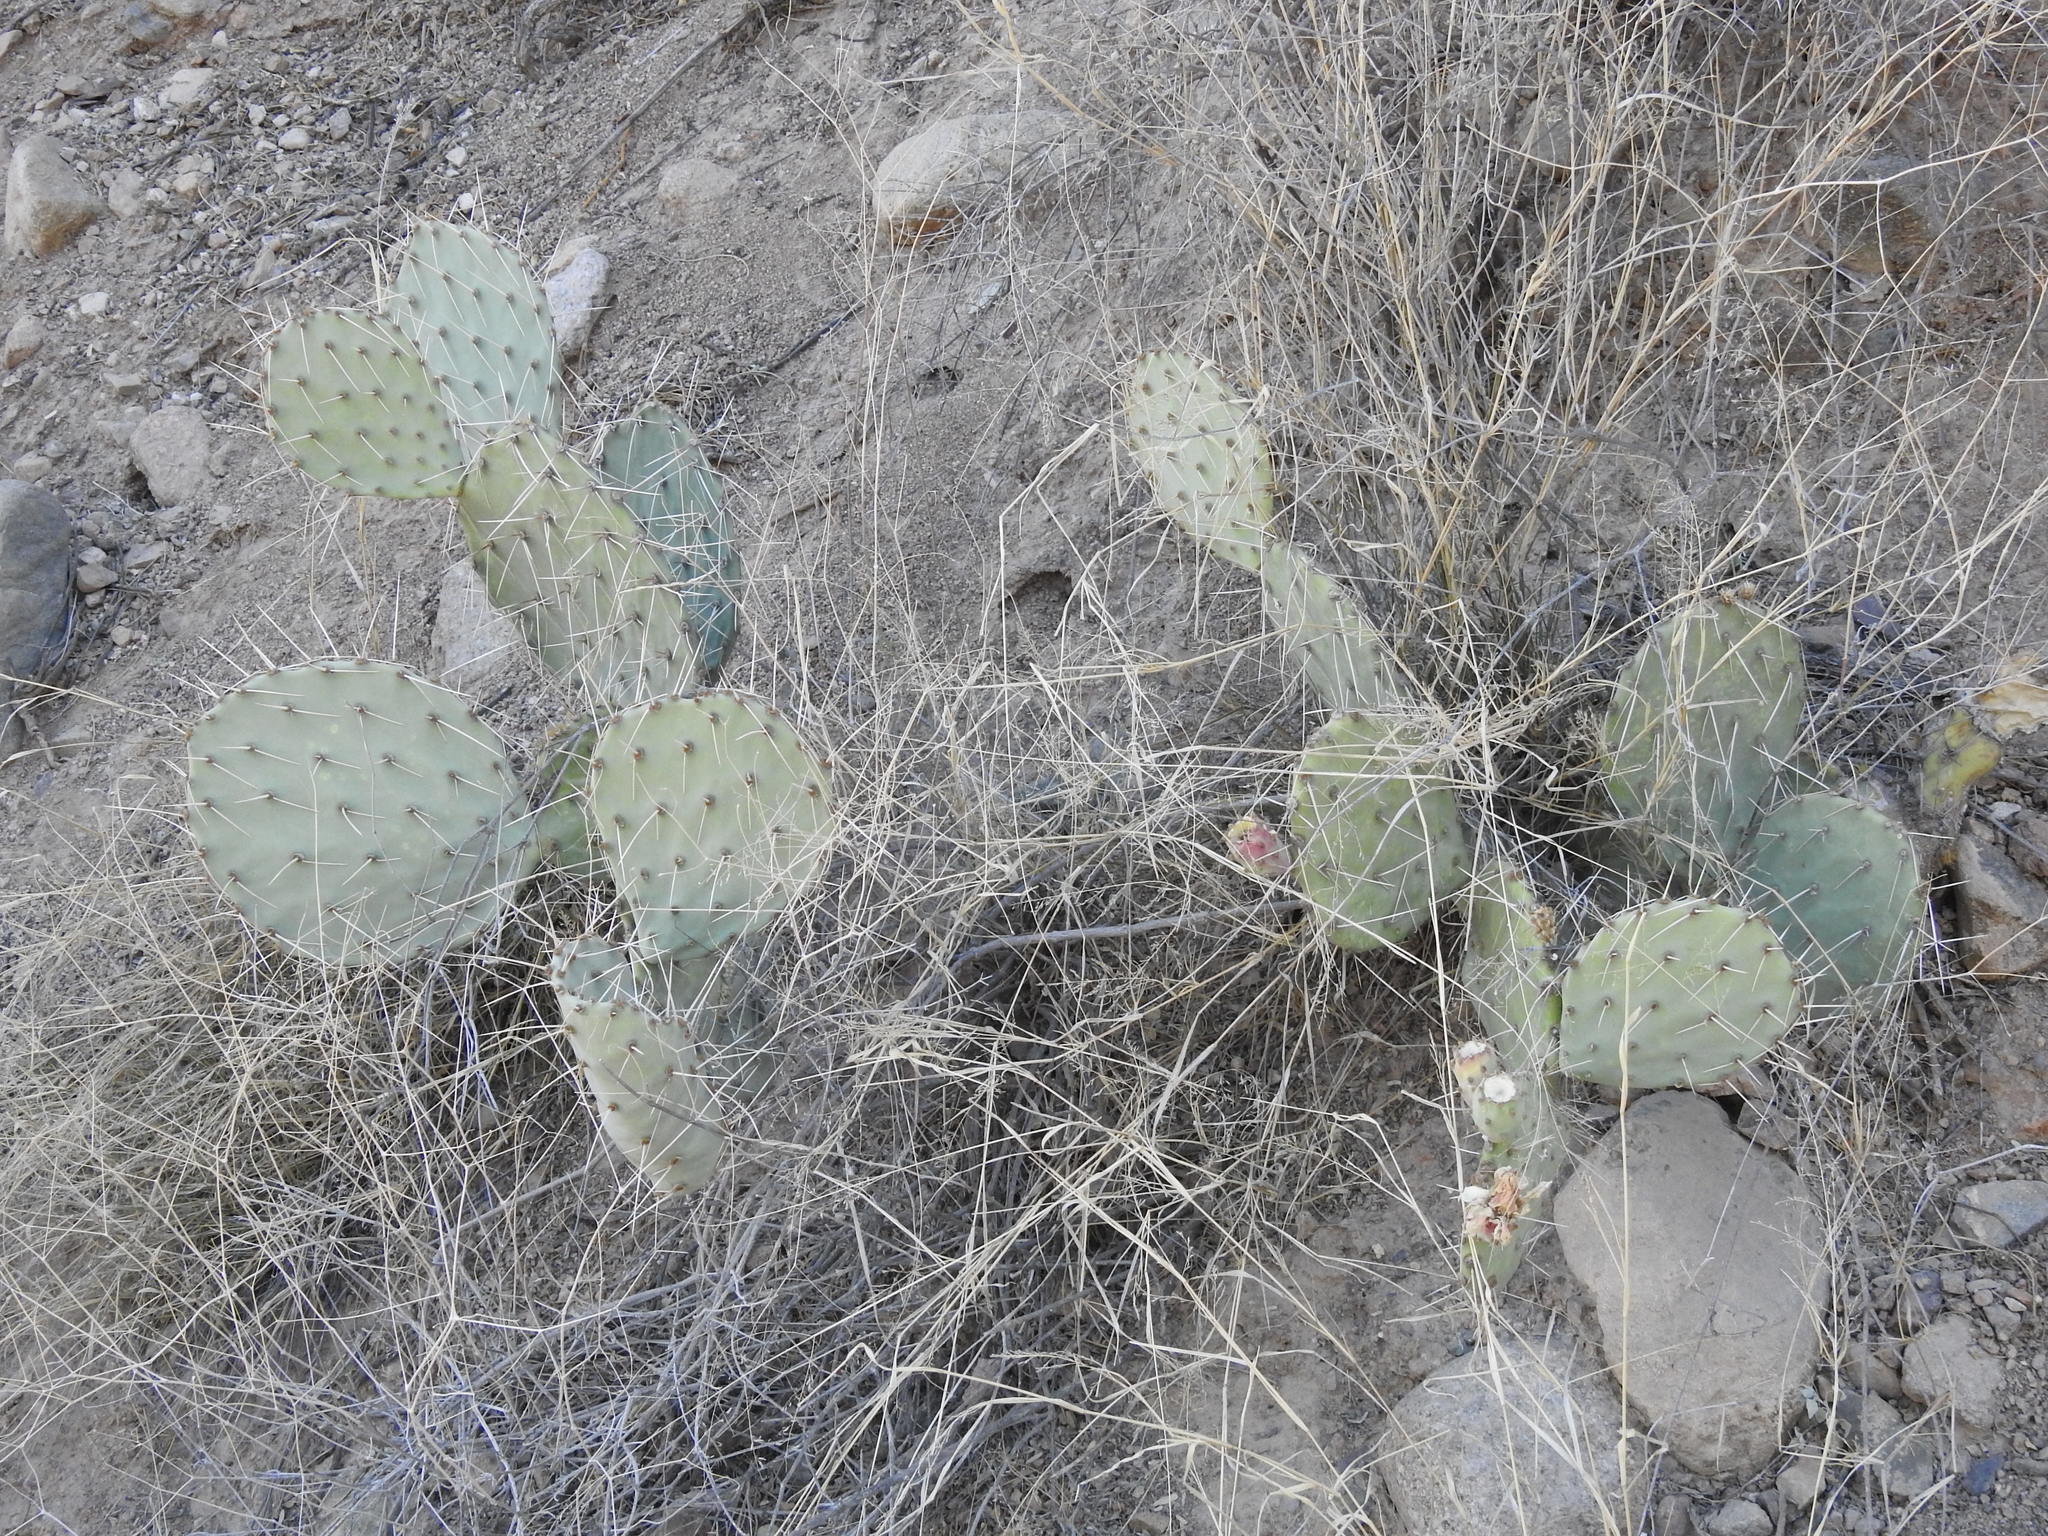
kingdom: Plantae
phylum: Tracheophyta
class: Magnoliopsida
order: Caryophyllales
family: Cactaceae
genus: Opuntia
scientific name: Opuntia engelmannii
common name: Cactus-apple
